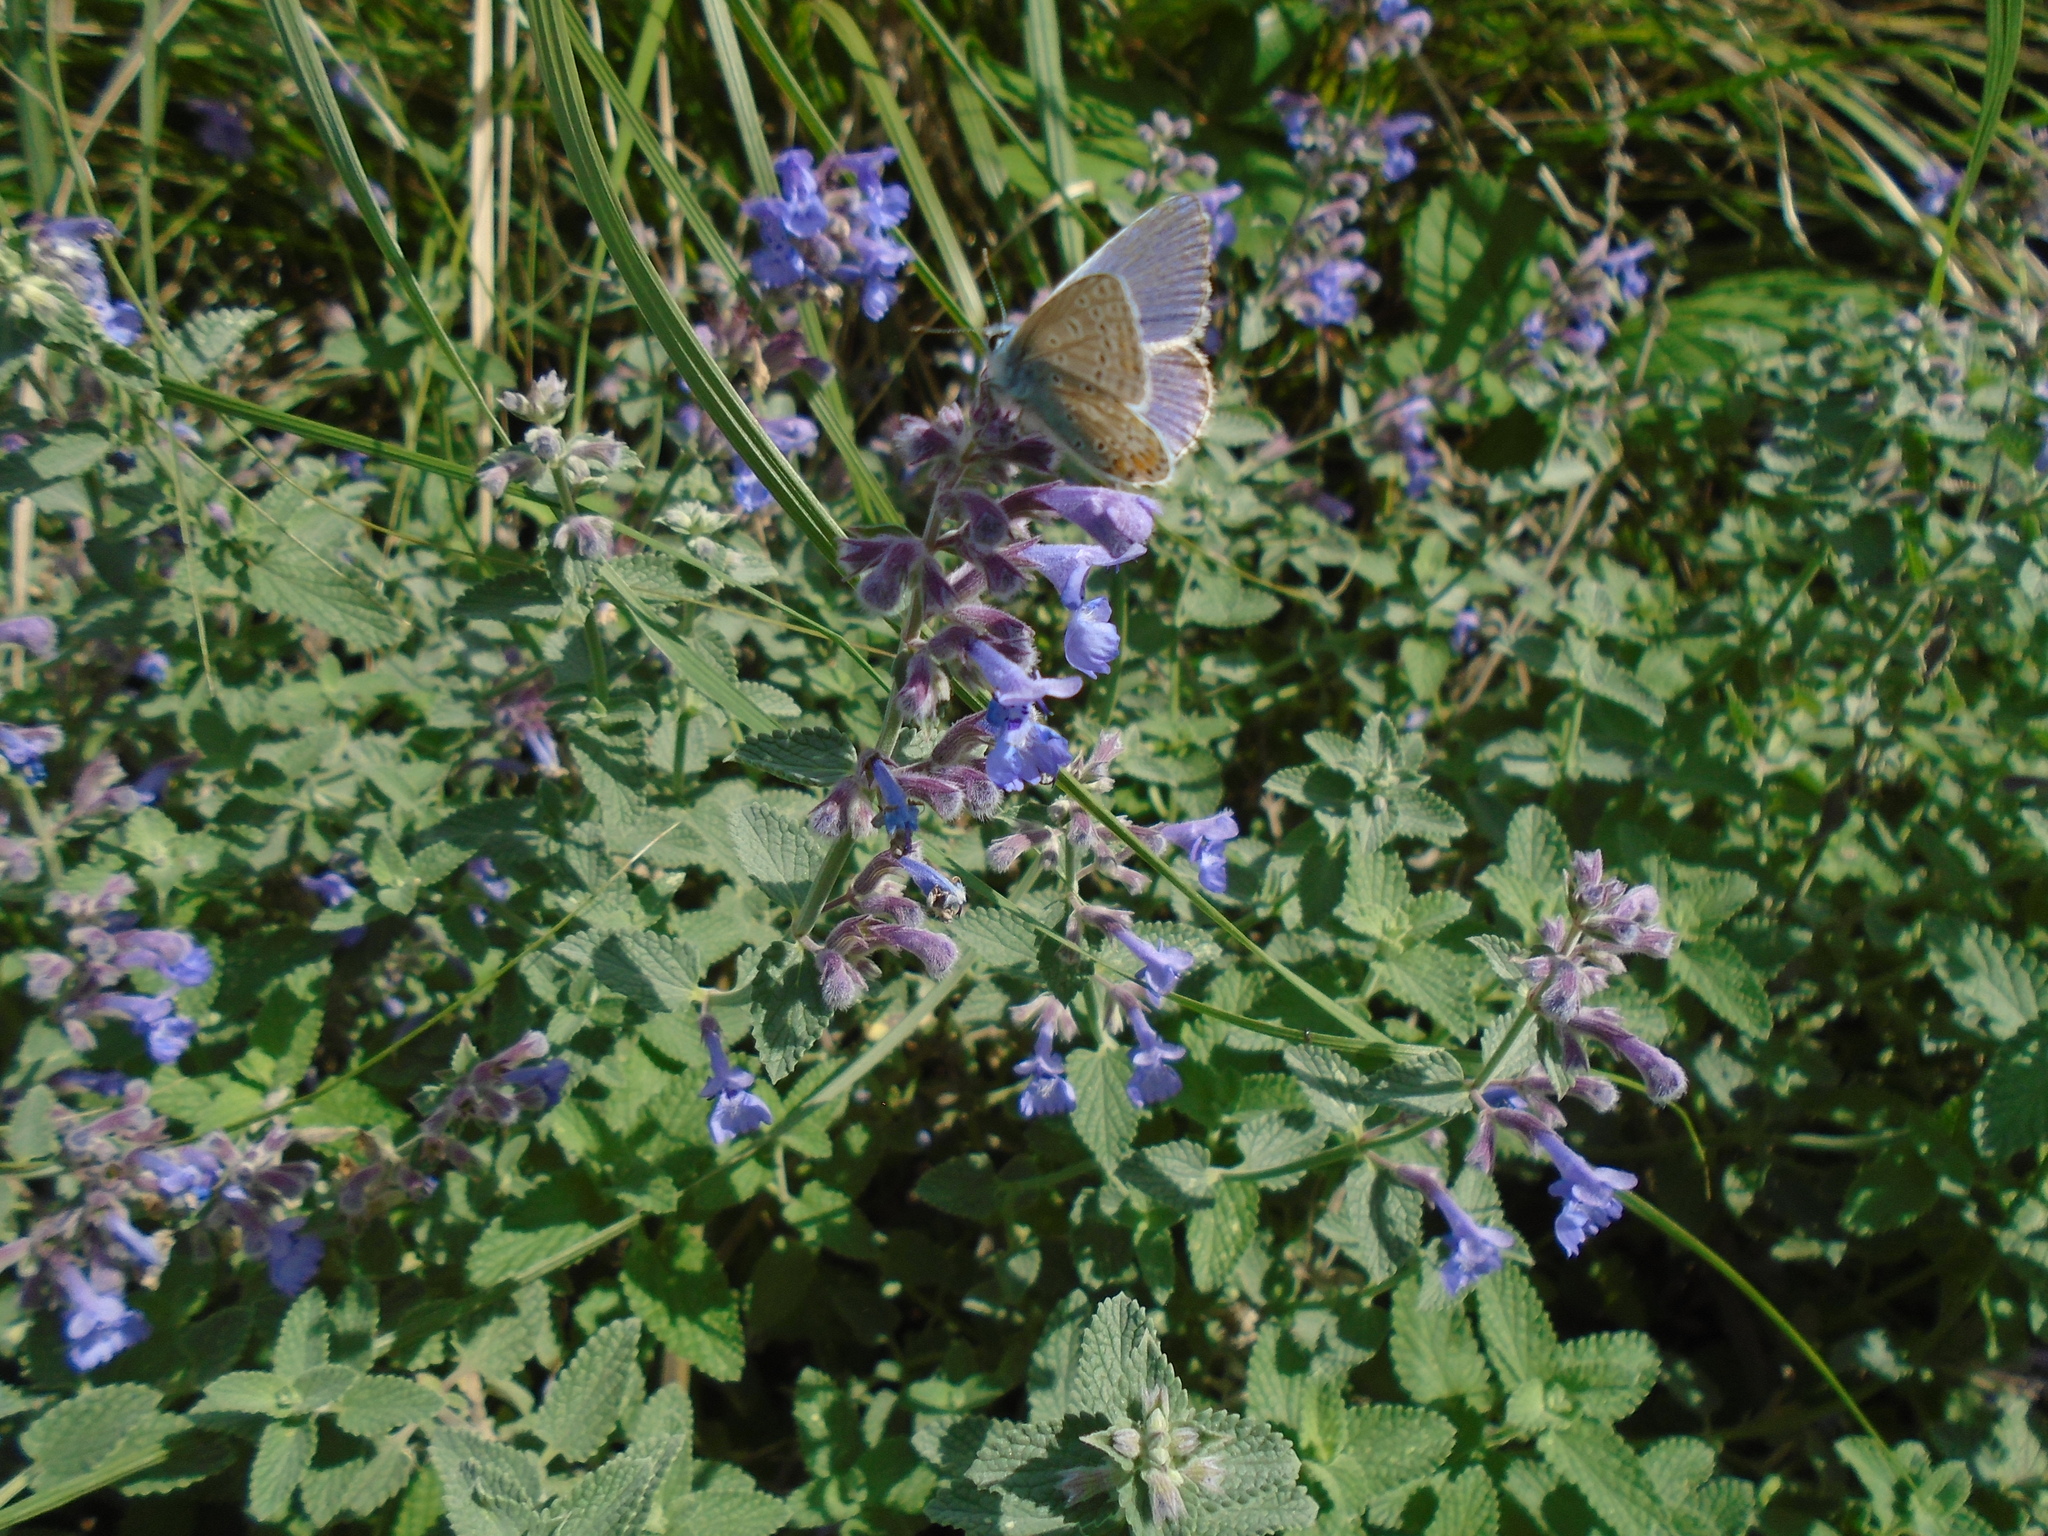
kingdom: Animalia
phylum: Arthropoda
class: Insecta
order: Lepidoptera
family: Lycaenidae
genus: Polyommatus
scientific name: Polyommatus icarus
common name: Common blue
